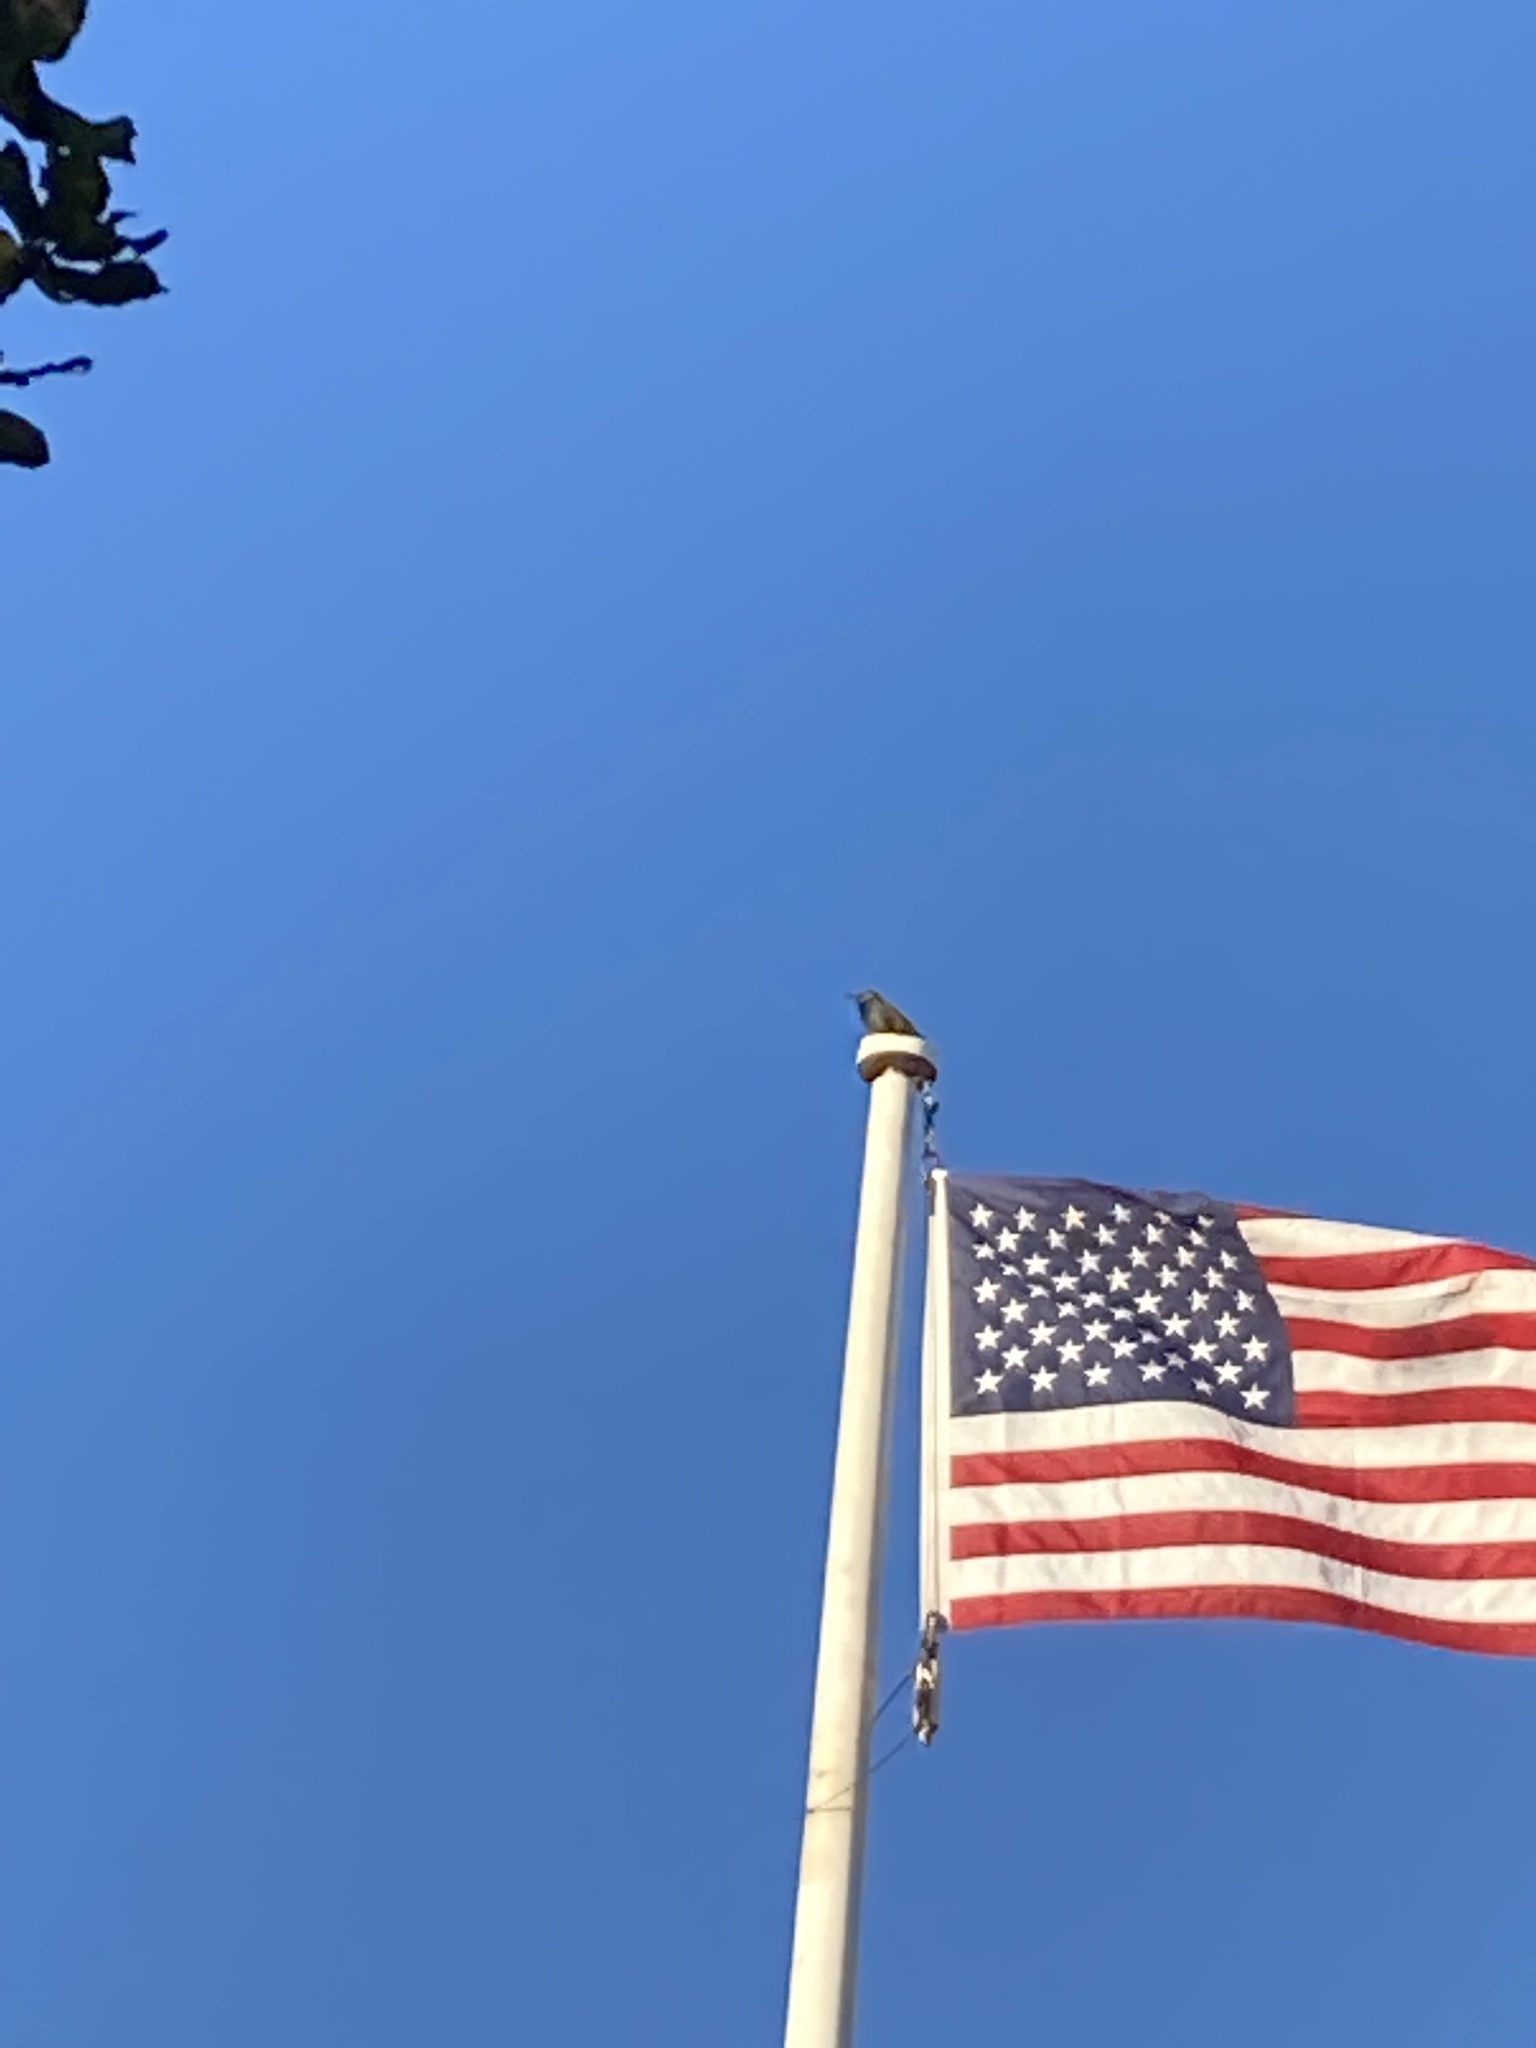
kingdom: Animalia
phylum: Chordata
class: Aves
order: Passeriformes
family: Sturnidae
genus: Sturnus
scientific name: Sturnus vulgaris
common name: Common starling
